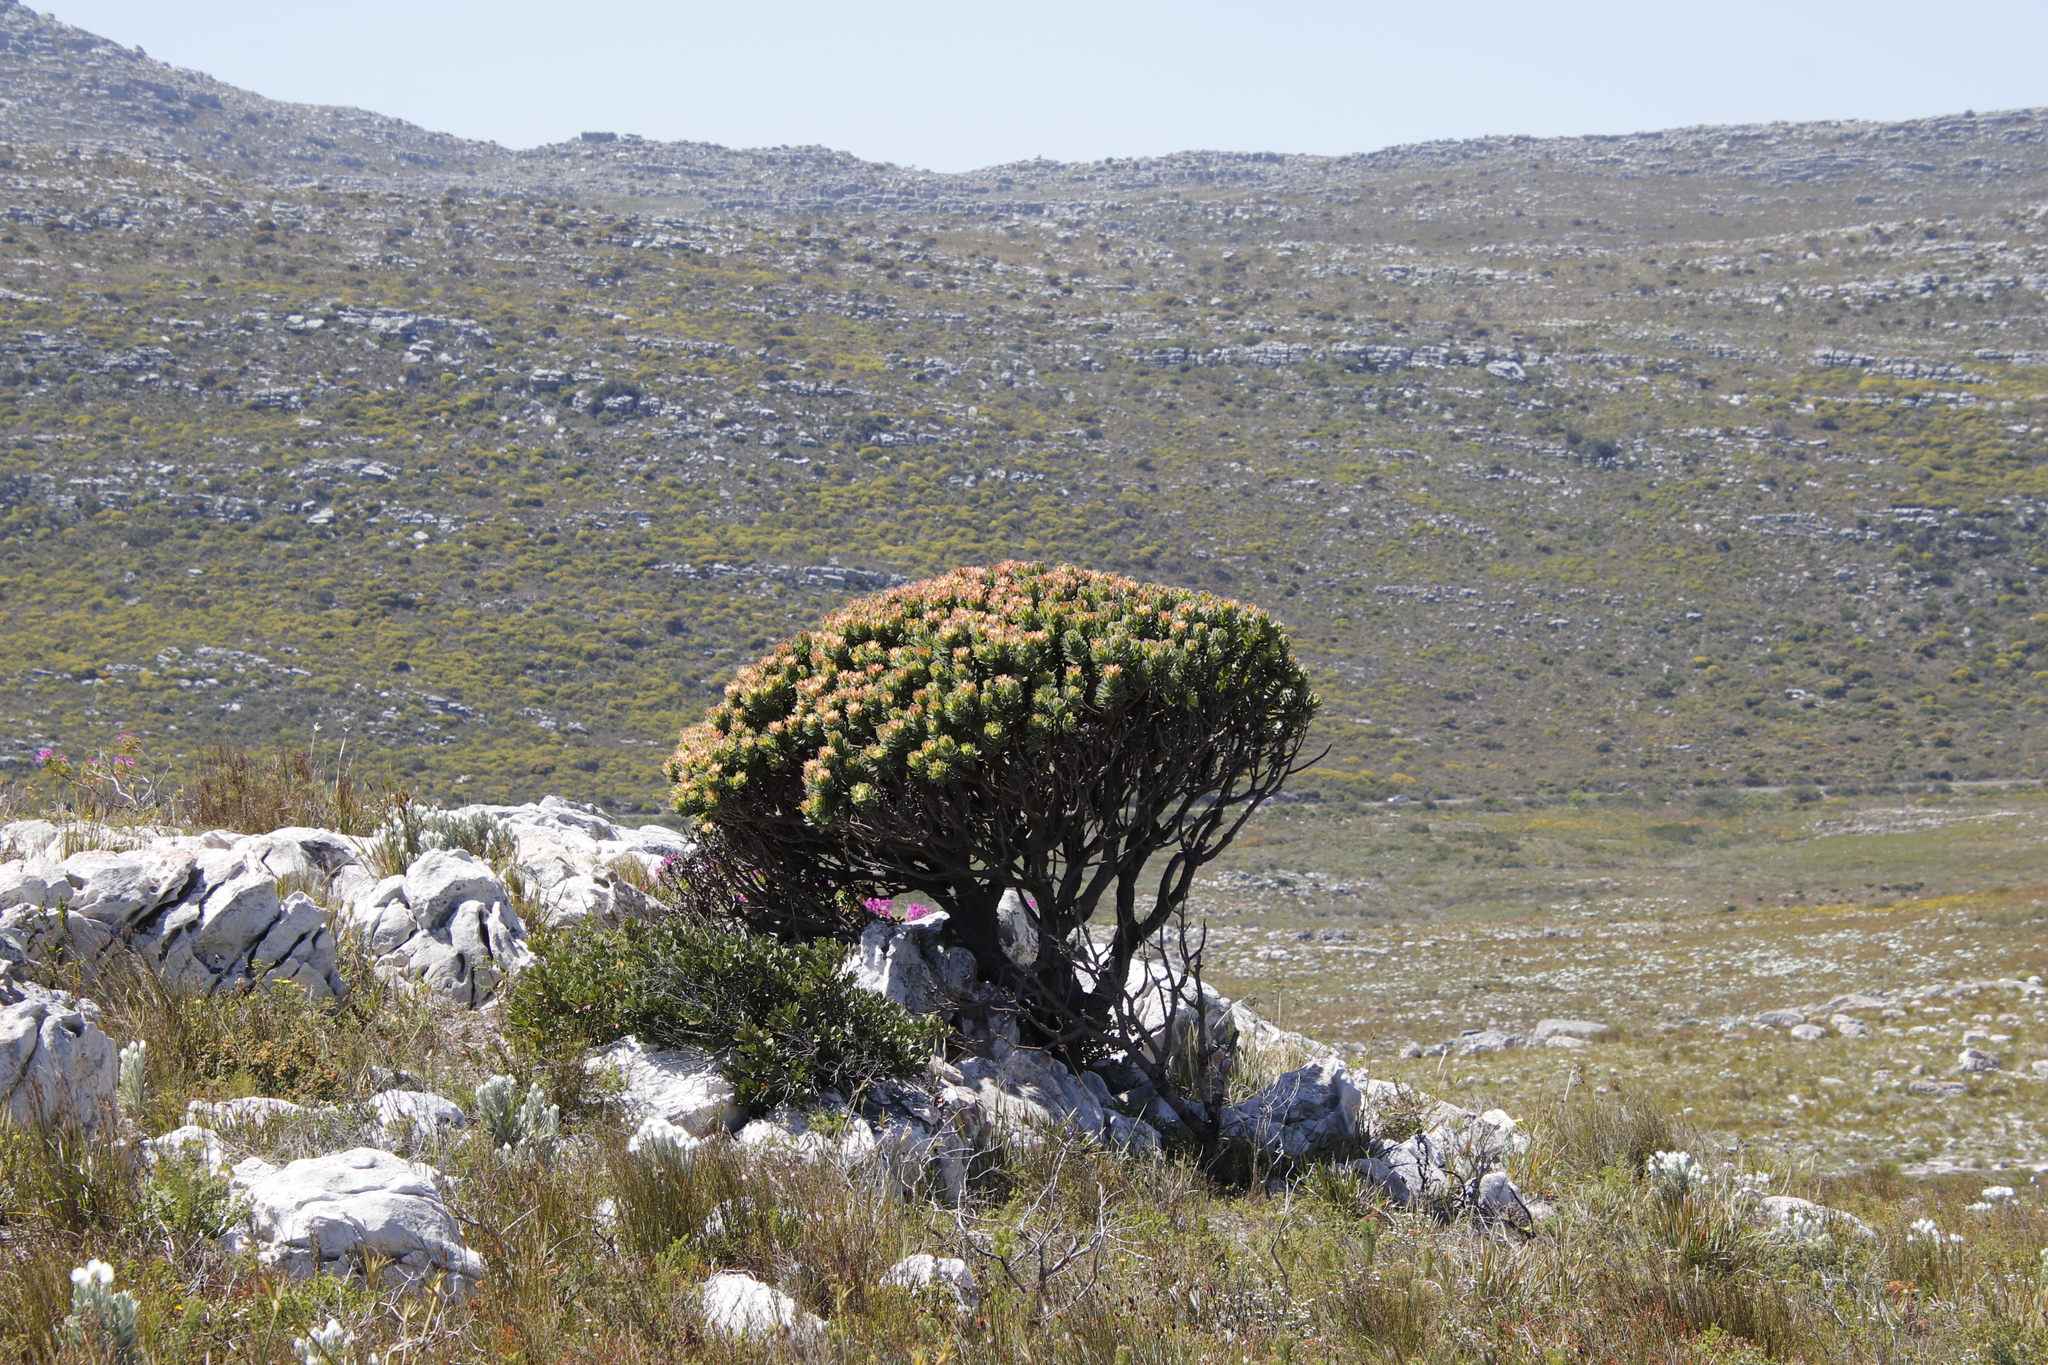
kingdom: Plantae
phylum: Tracheophyta
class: Magnoliopsida
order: Proteales
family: Proteaceae
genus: Mimetes
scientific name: Mimetes fimbriifolius
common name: Fringed bottlebrush
